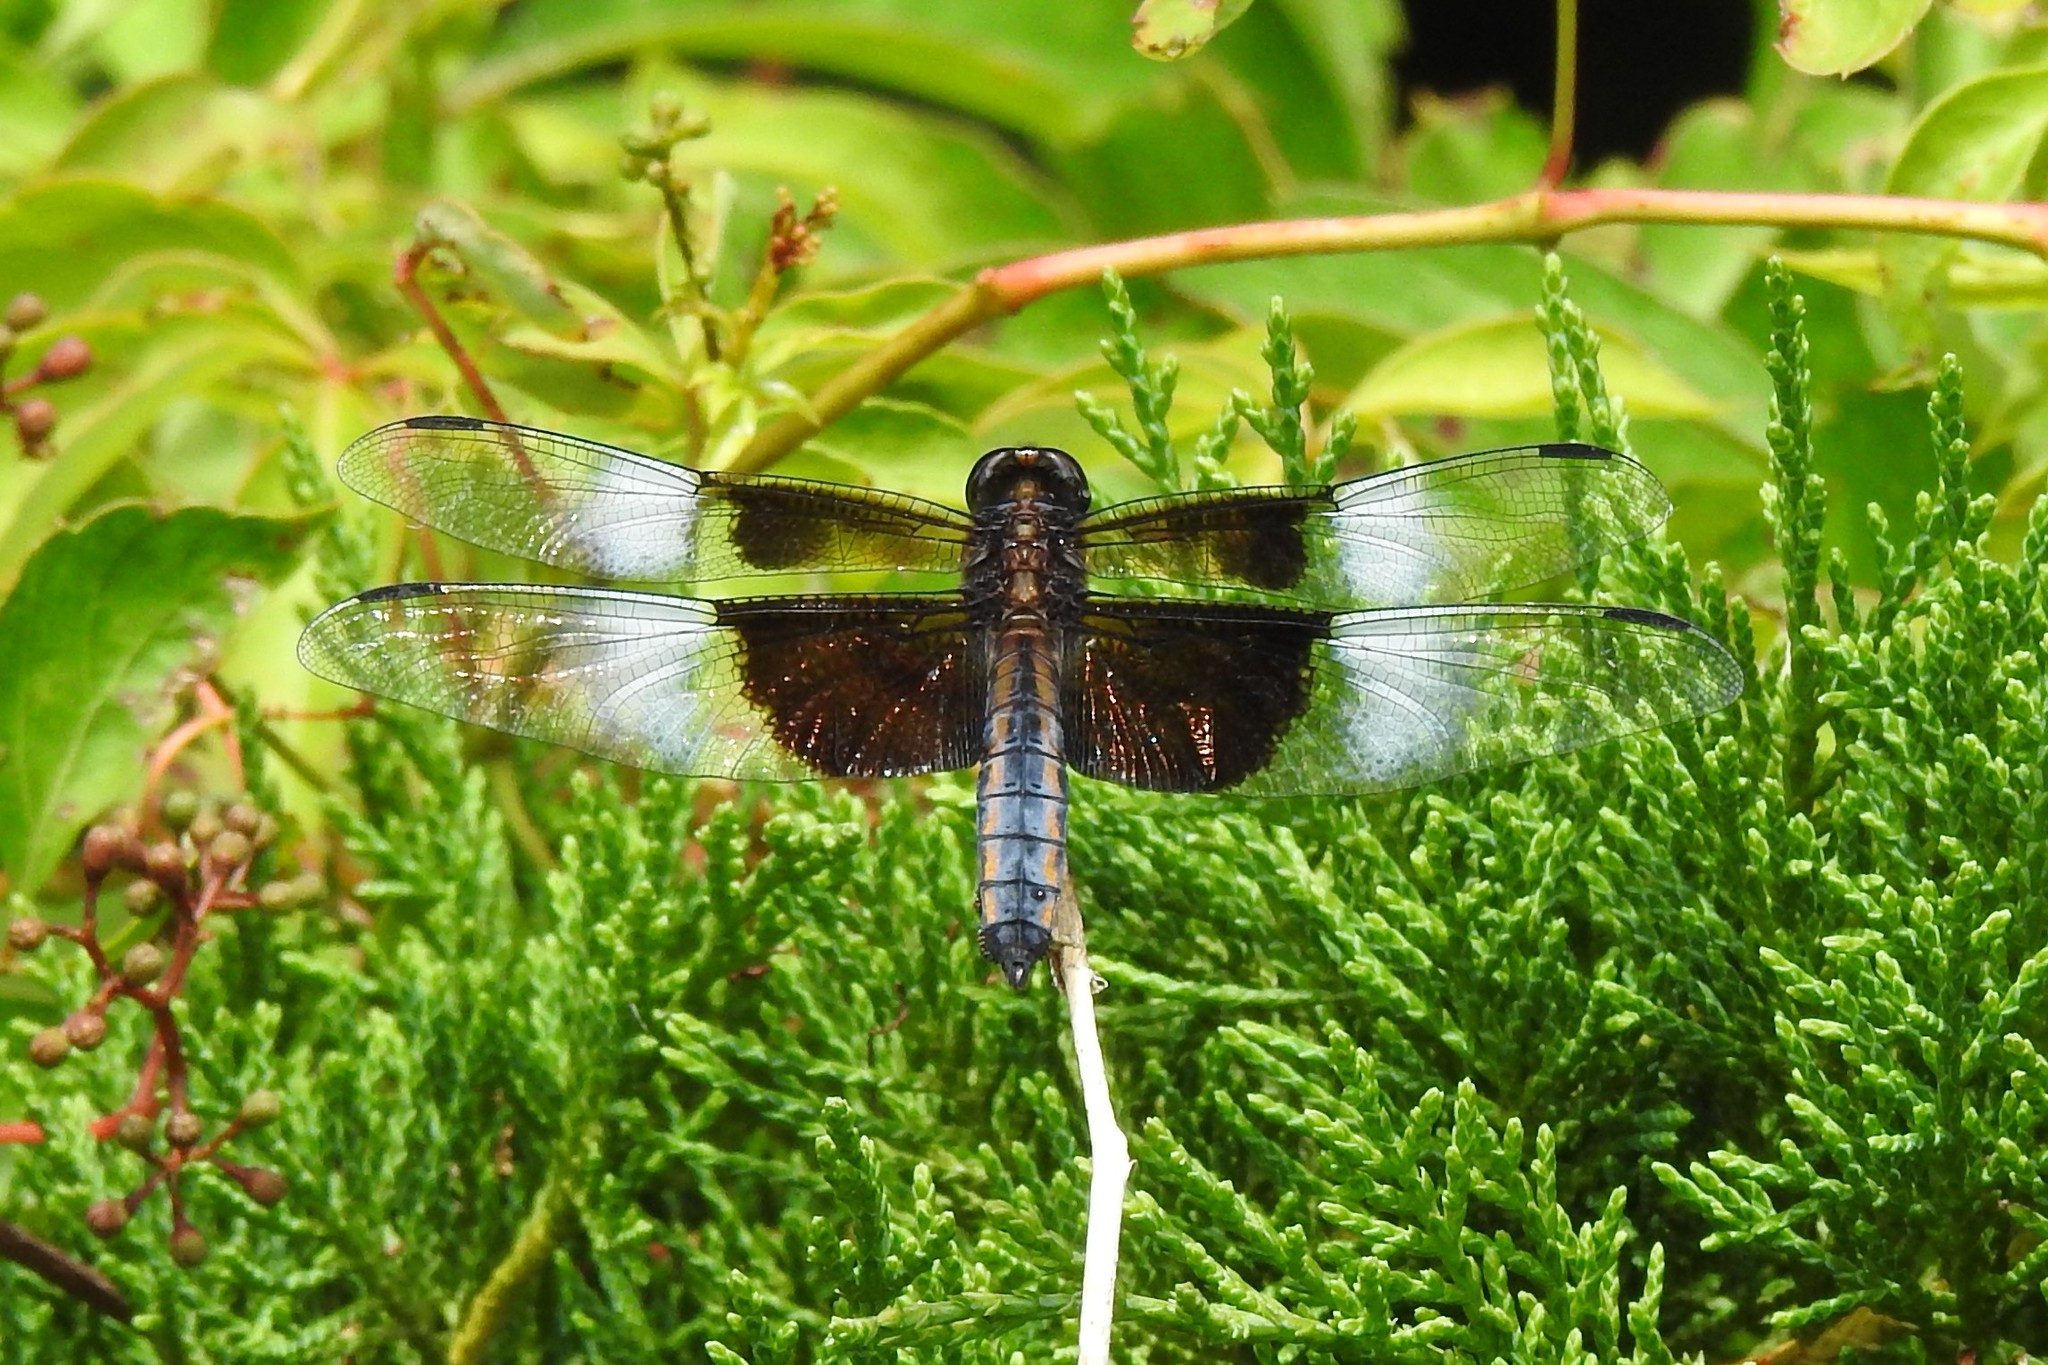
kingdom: Animalia
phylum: Arthropoda
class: Insecta
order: Odonata
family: Libellulidae
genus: Libellula
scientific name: Libellula luctuosa
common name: Widow skimmer
